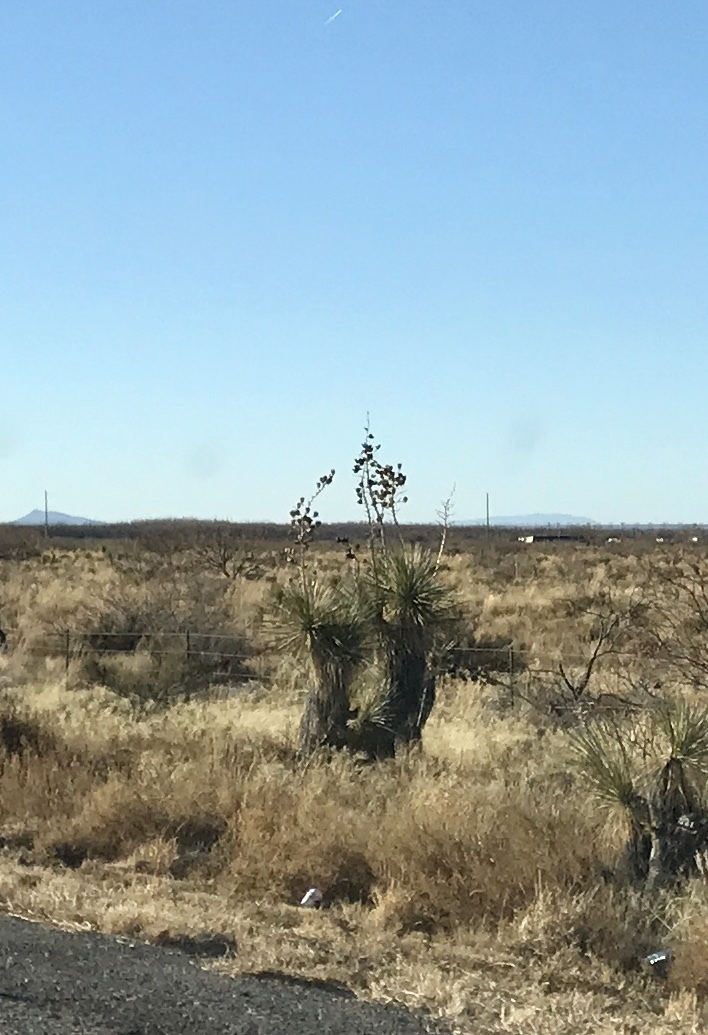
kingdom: Plantae
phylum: Tracheophyta
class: Liliopsida
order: Asparagales
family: Asparagaceae
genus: Yucca
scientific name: Yucca elata
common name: Palmella
